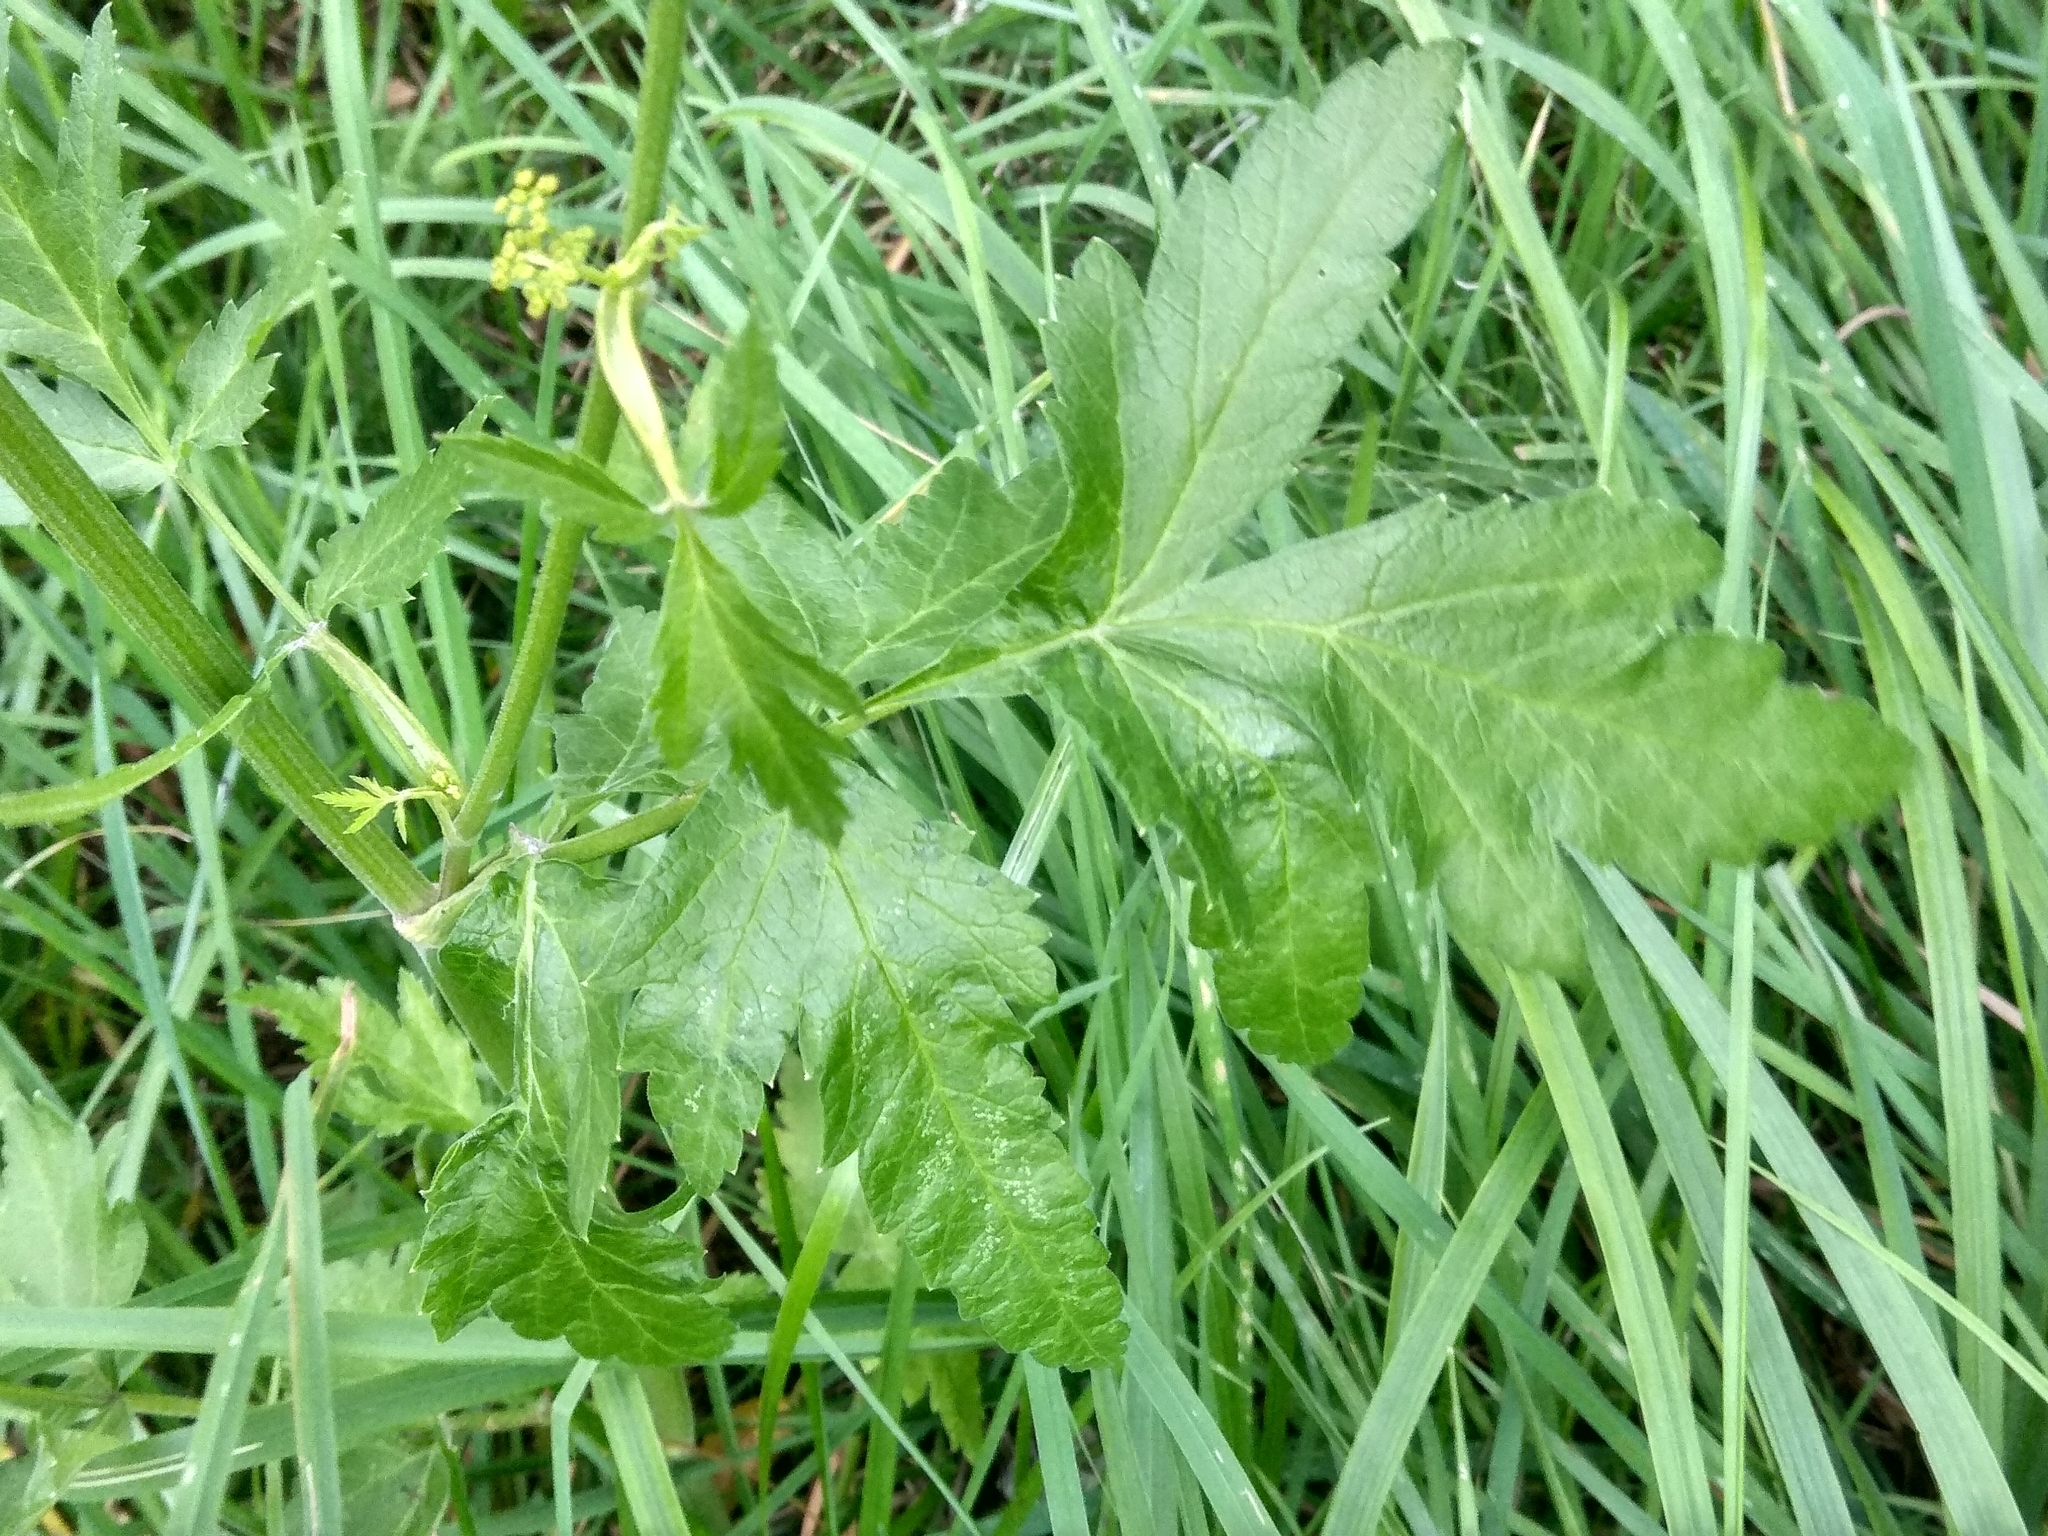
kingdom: Plantae
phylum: Tracheophyta
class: Magnoliopsida
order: Apiales
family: Apiaceae
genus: Pastinaca
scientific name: Pastinaca sativa
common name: Wild parsnip
